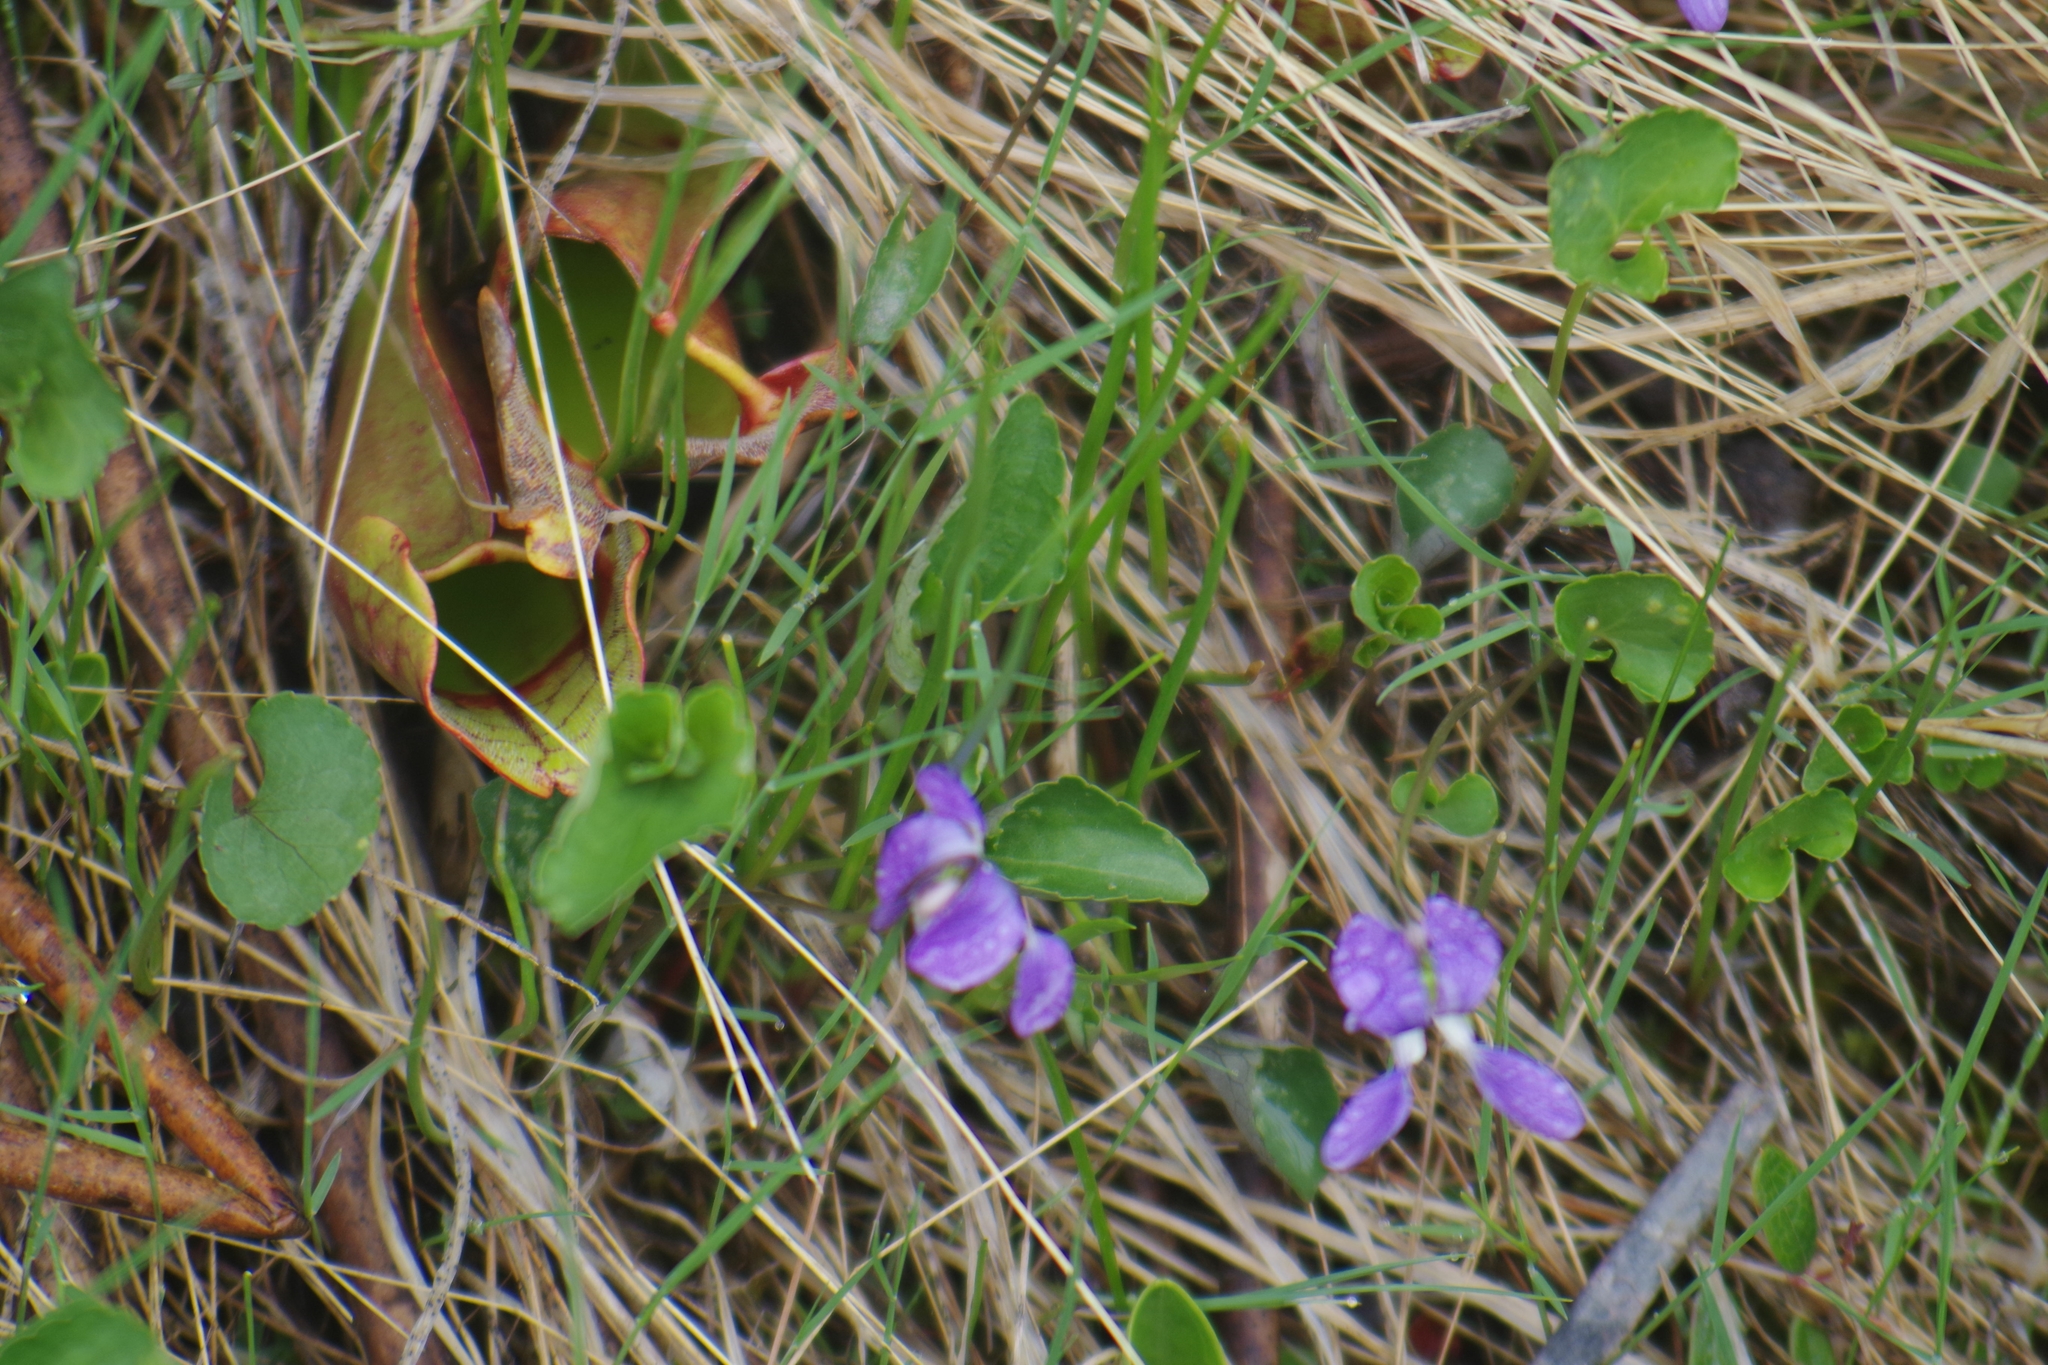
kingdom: Plantae
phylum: Tracheophyta
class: Magnoliopsida
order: Malpighiales
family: Violaceae
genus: Viola
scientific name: Viola nephrophylla
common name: Blue meadow violet
